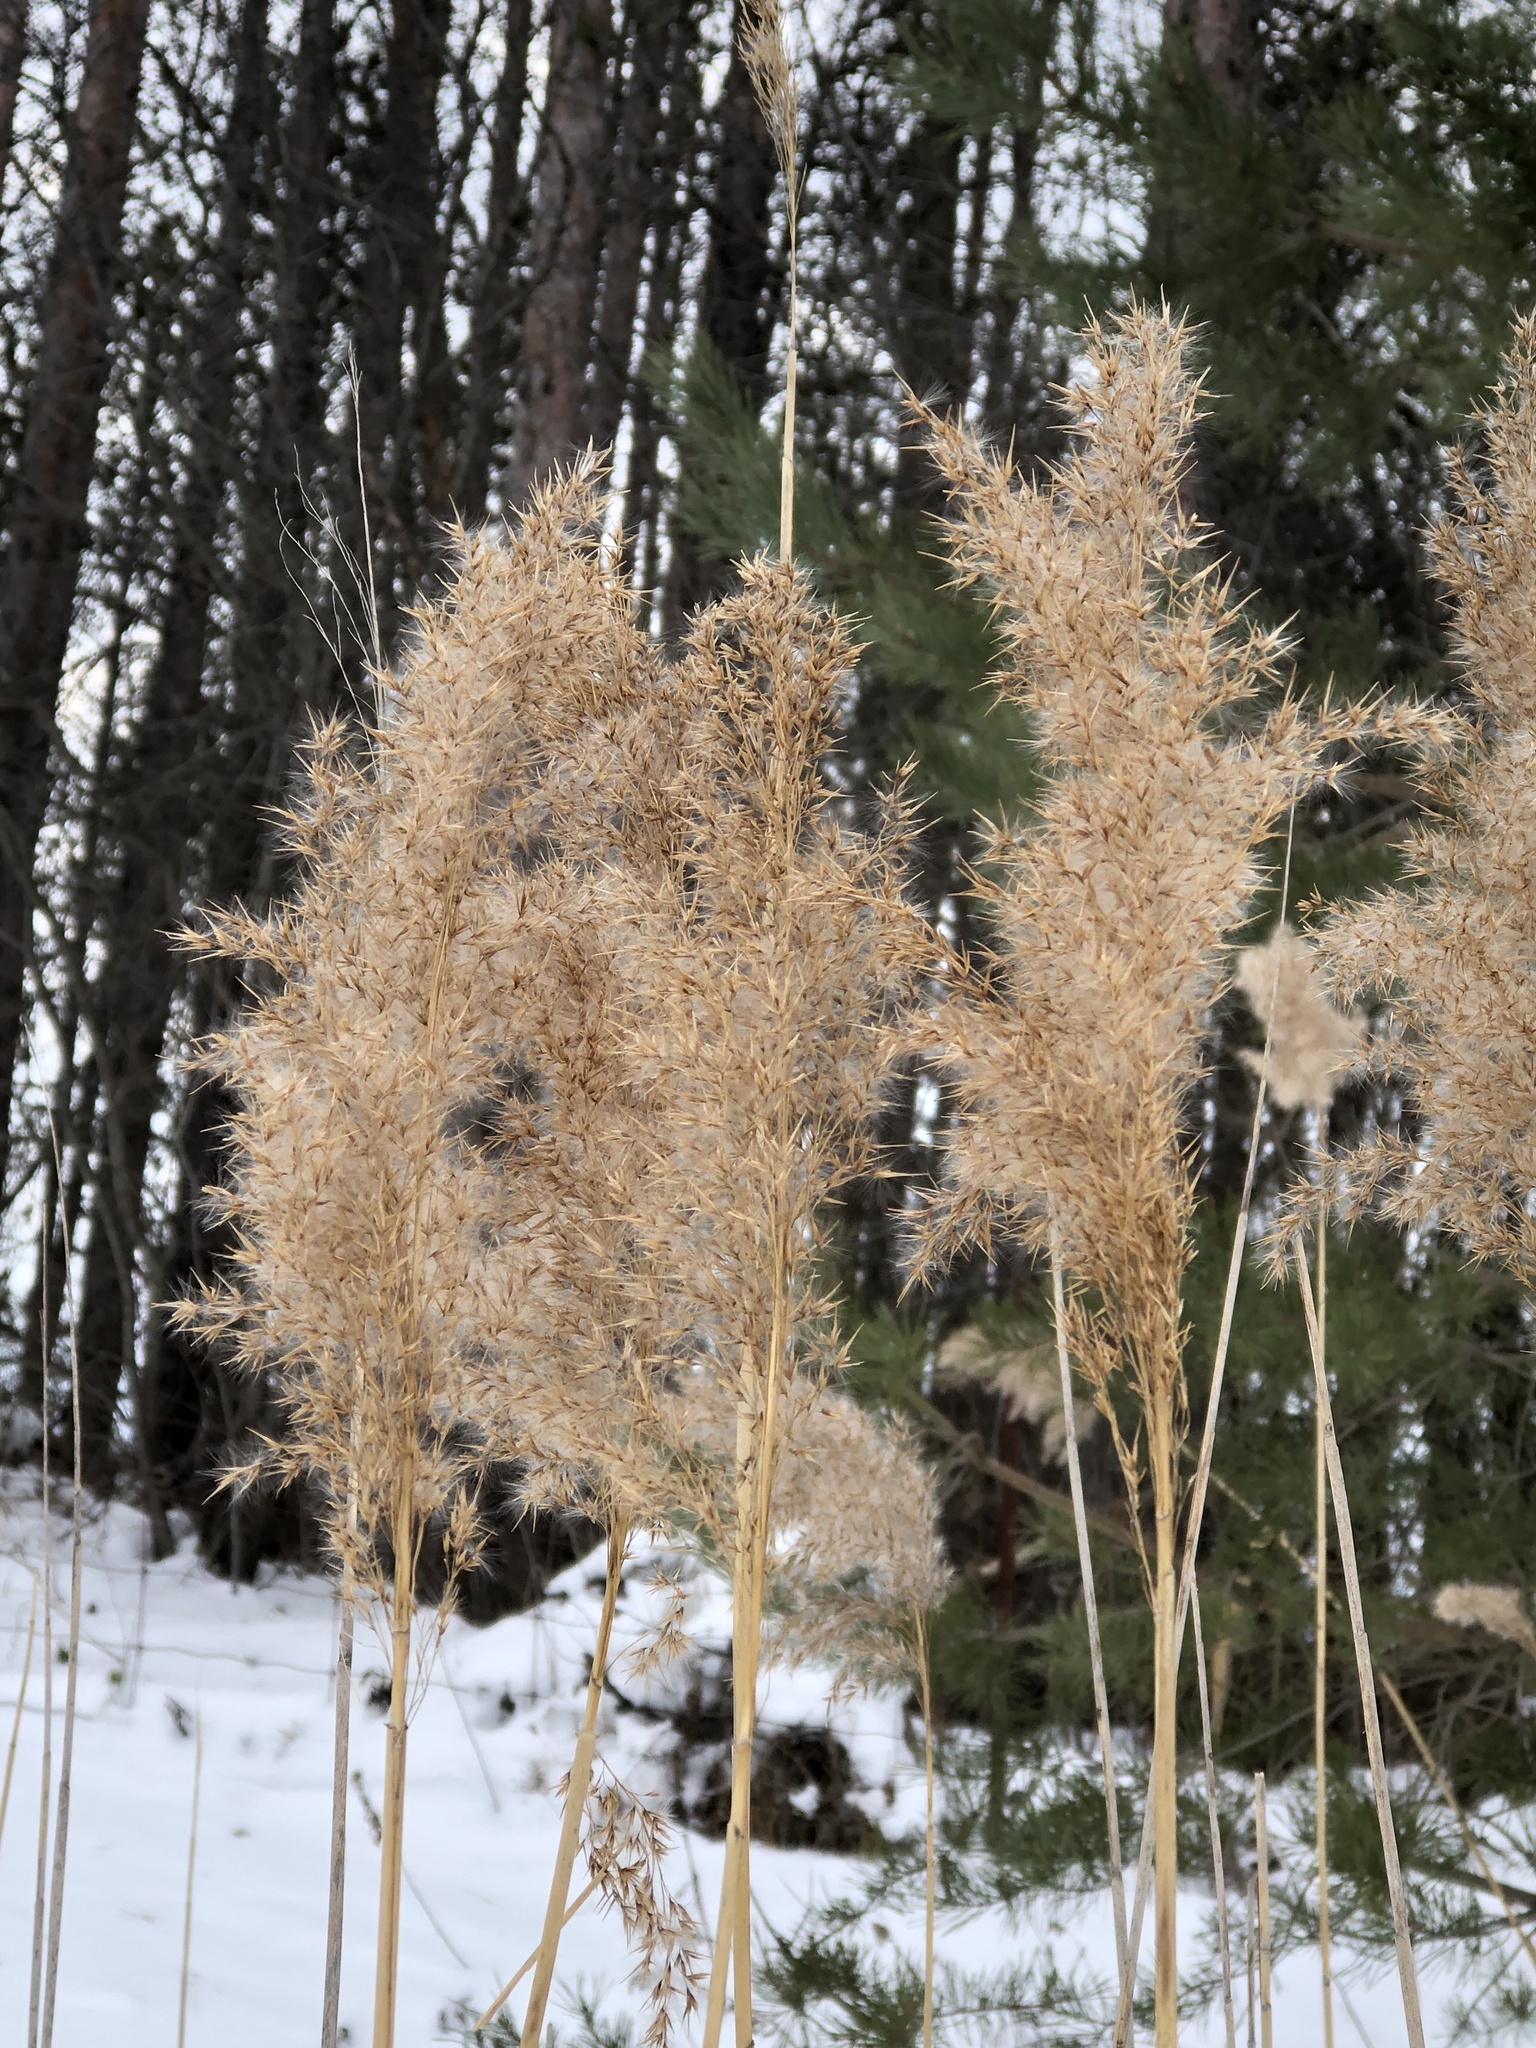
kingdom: Plantae
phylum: Tracheophyta
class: Liliopsida
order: Poales
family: Poaceae
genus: Phragmites
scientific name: Phragmites australis
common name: Common reed
